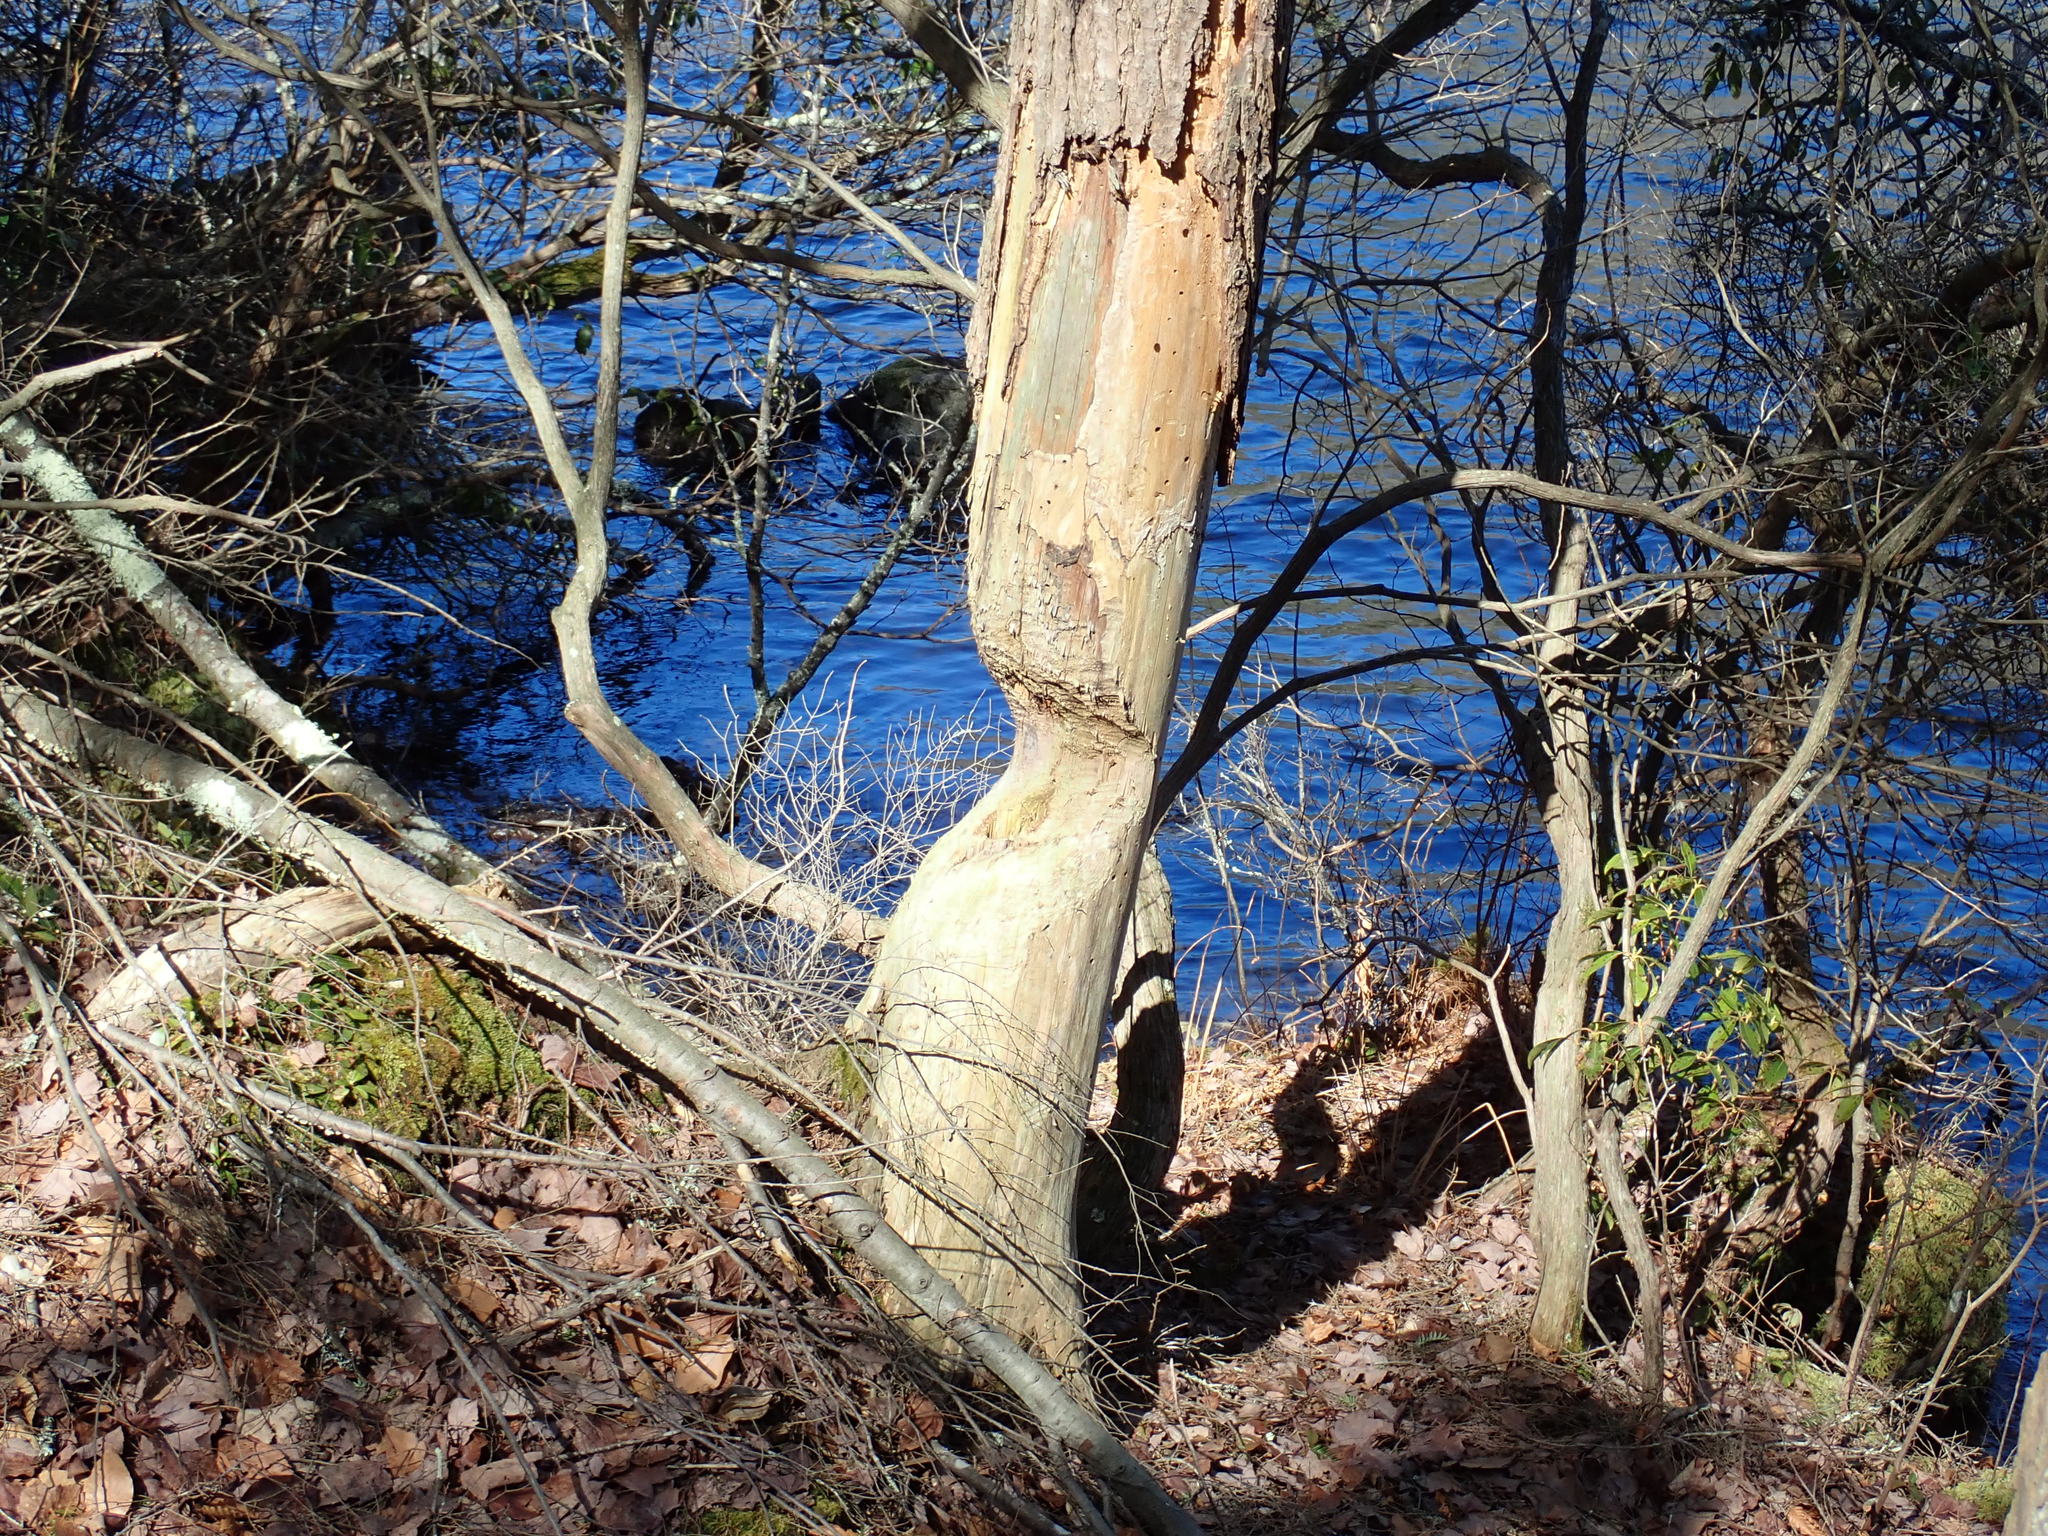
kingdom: Animalia
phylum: Chordata
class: Mammalia
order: Rodentia
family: Castoridae
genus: Castor
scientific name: Castor canadensis
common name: American beaver
